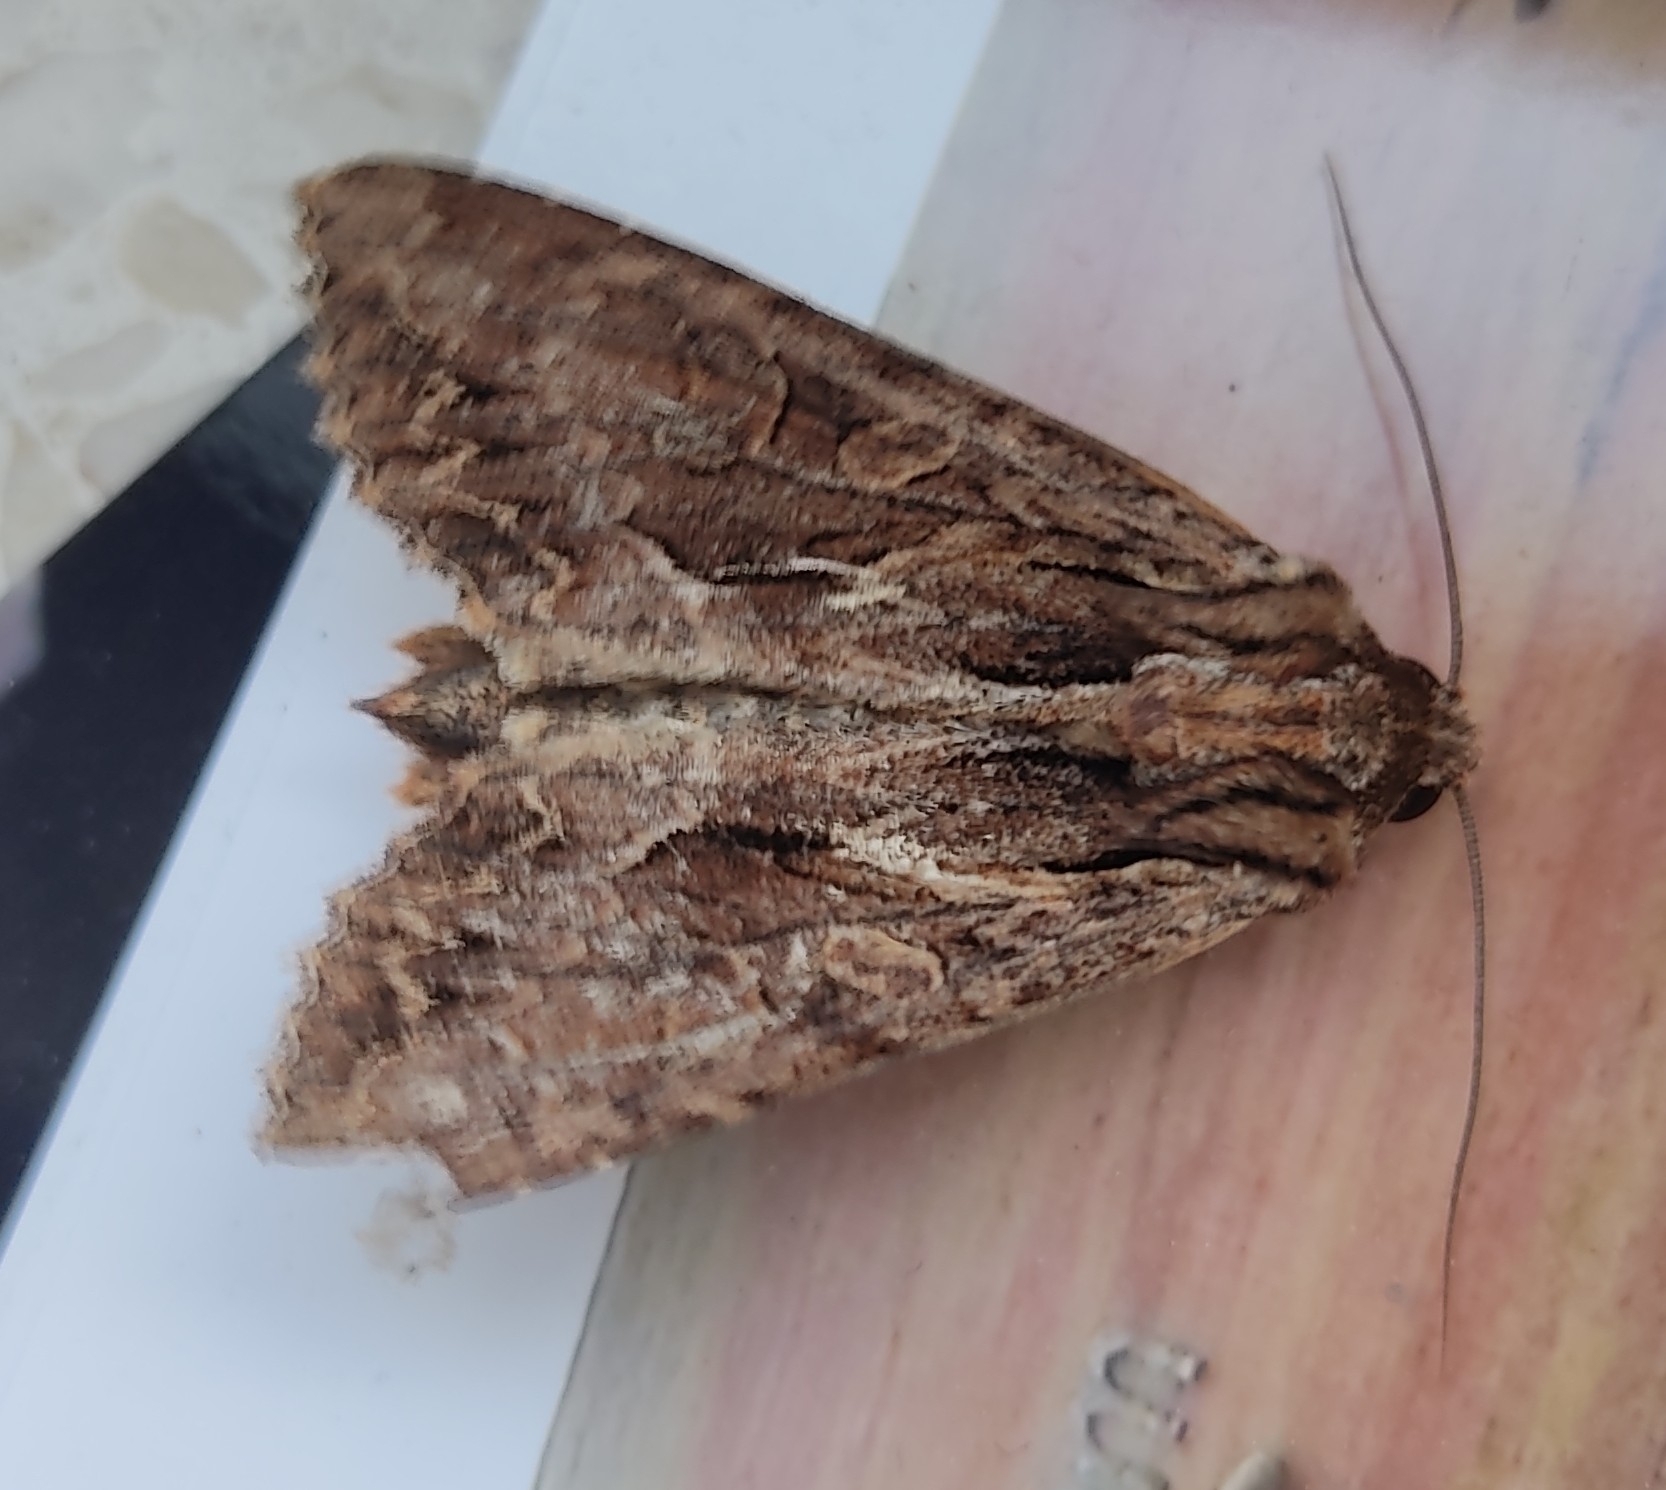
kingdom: Animalia
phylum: Arthropoda
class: Insecta
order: Lepidoptera
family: Noctuidae
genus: Apamea
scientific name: Apamea monoglypha
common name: Dark arches
